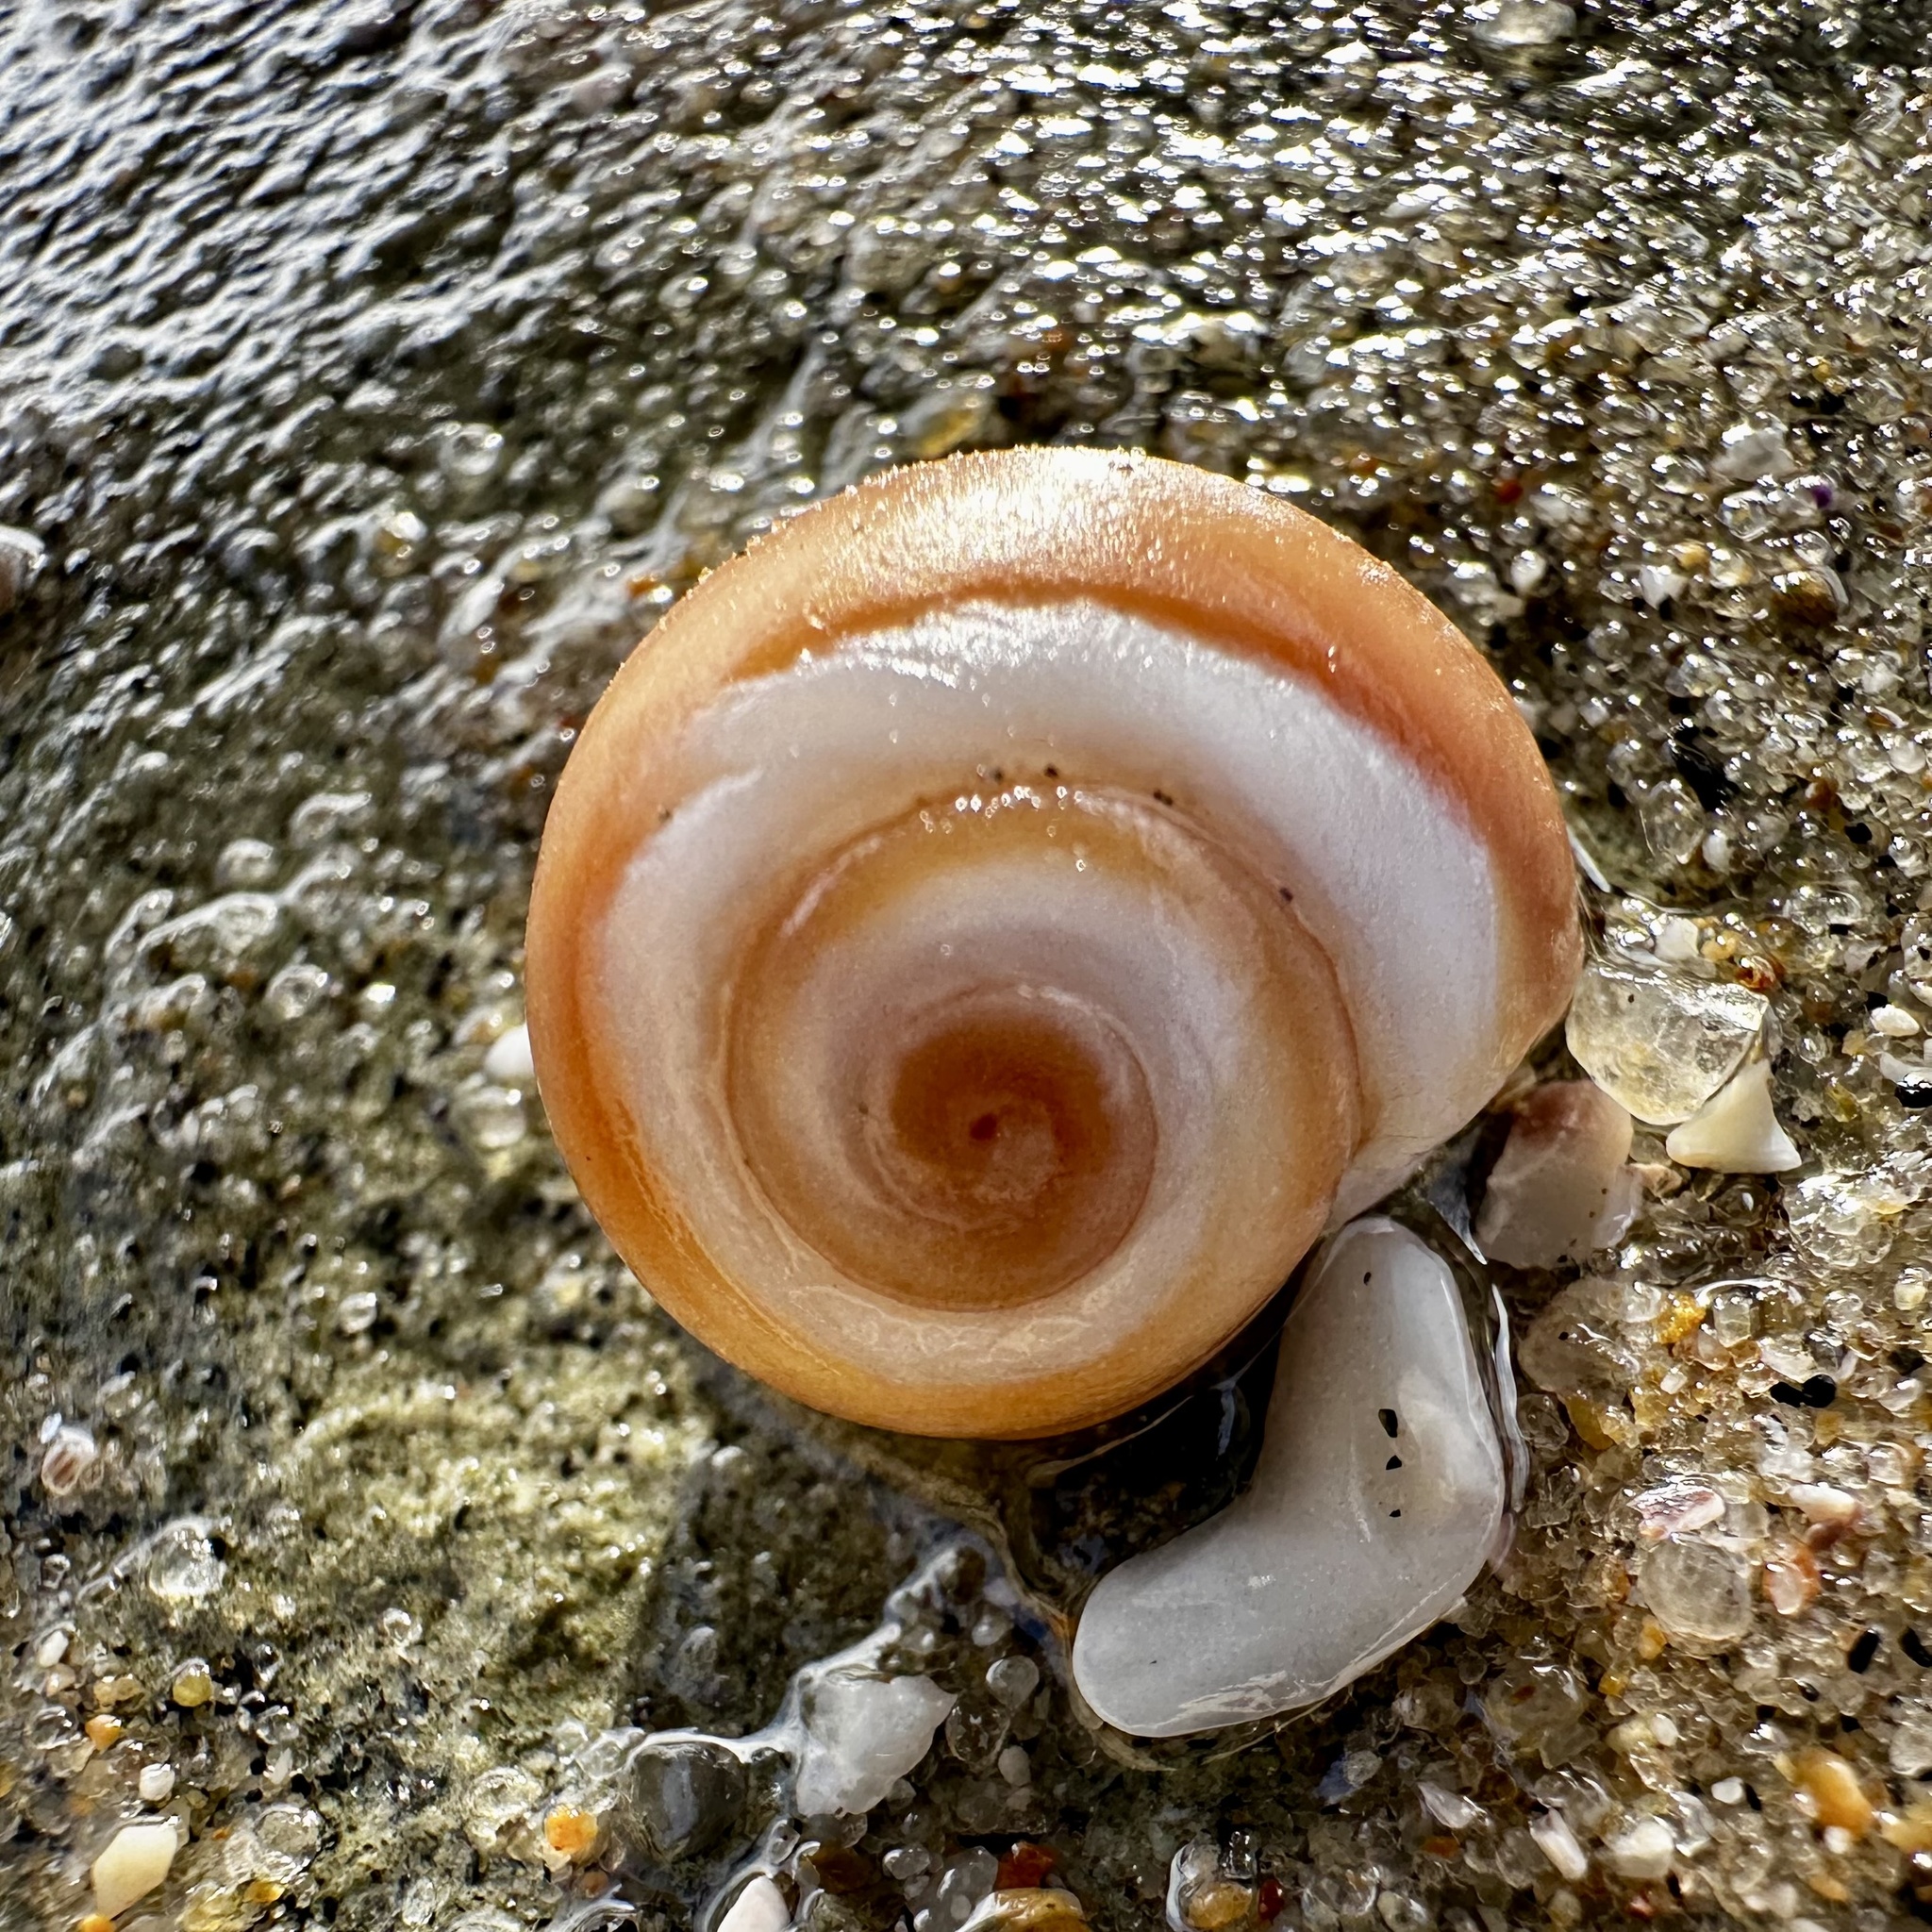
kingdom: Animalia
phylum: Mollusca
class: Gastropoda
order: Littorinimorpha
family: Naticidae
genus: Glossaulax
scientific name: Glossaulax reclusiana
